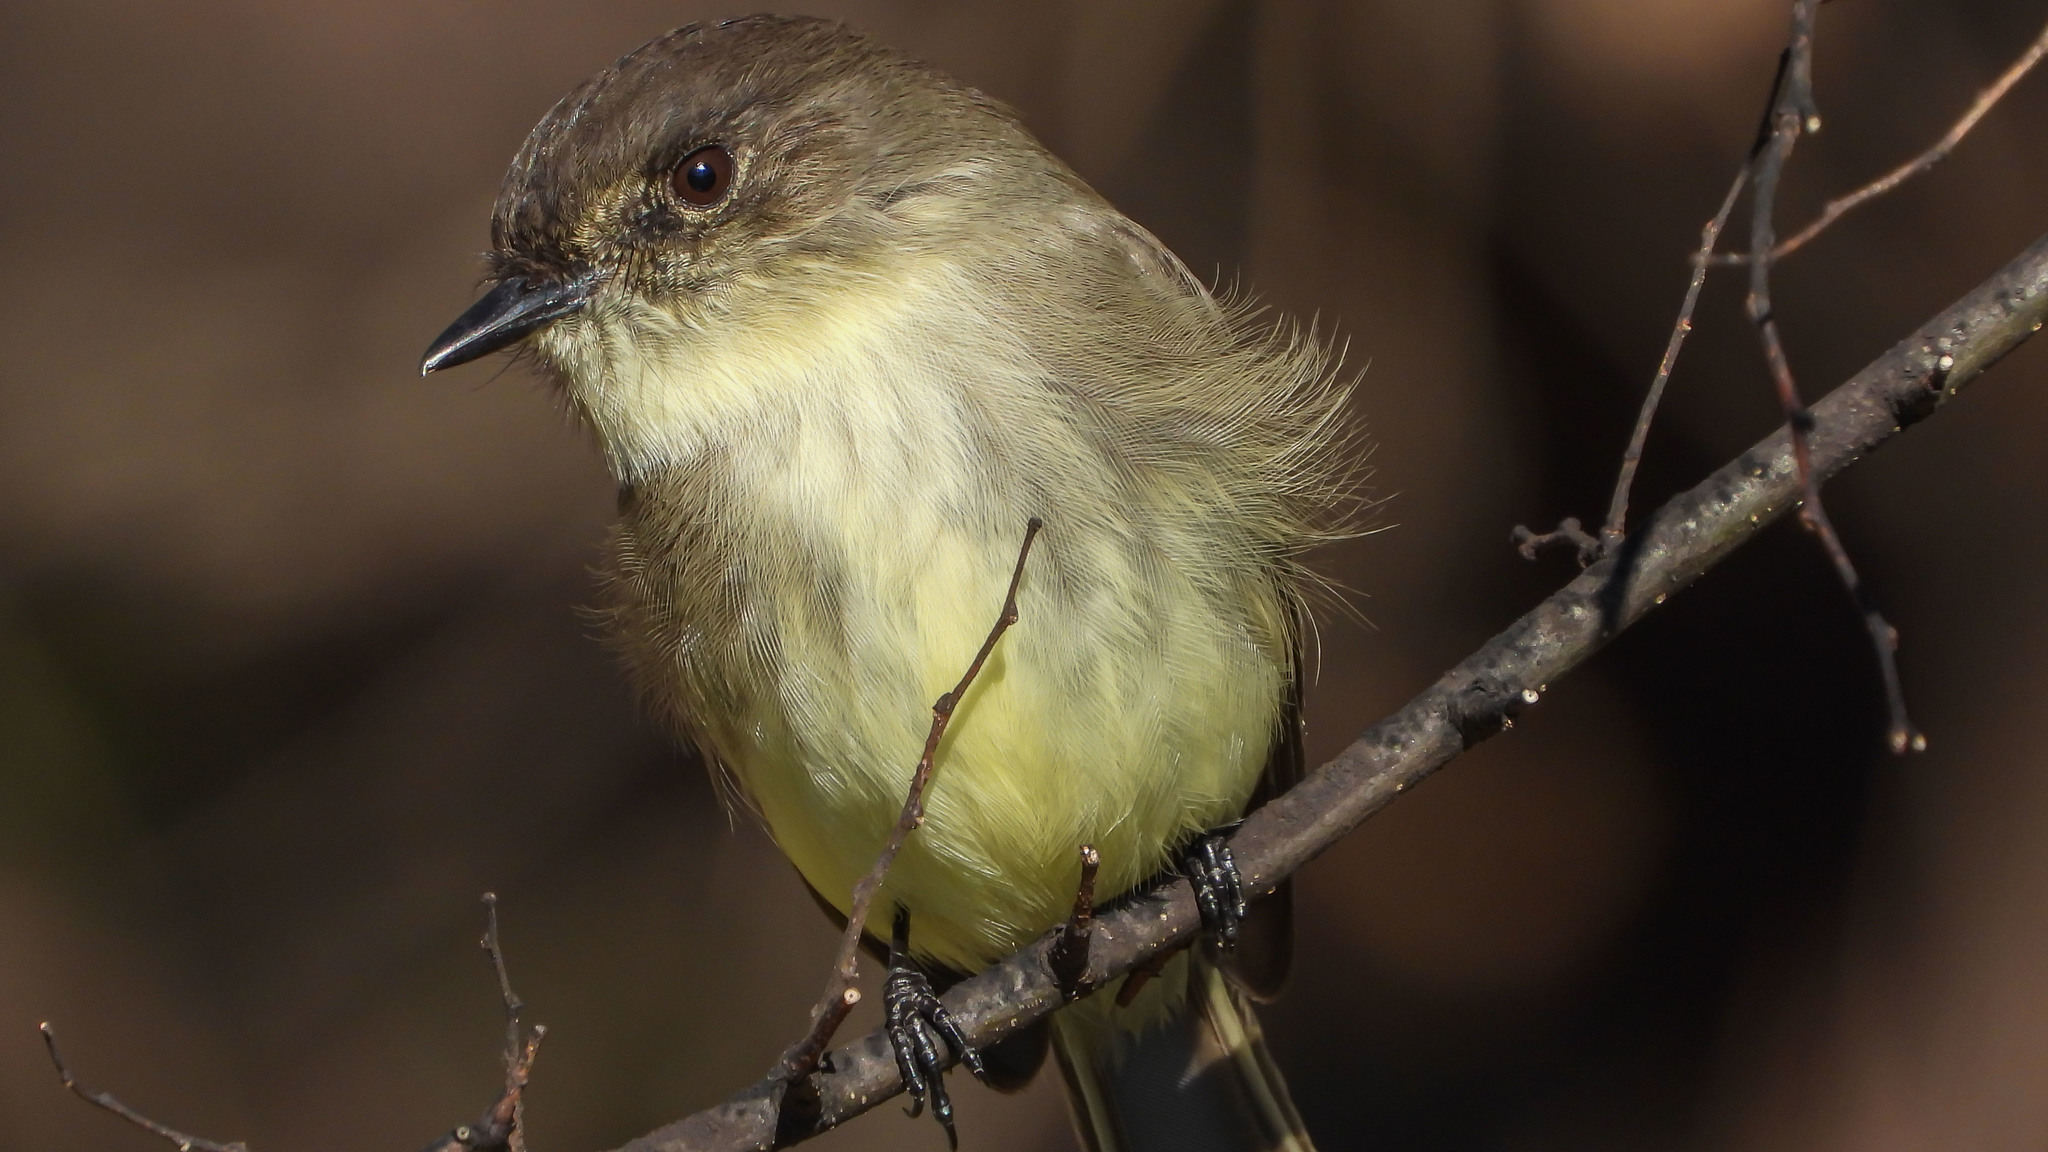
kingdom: Animalia
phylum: Chordata
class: Aves
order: Passeriformes
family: Tyrannidae
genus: Sayornis
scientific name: Sayornis phoebe
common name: Eastern phoebe
